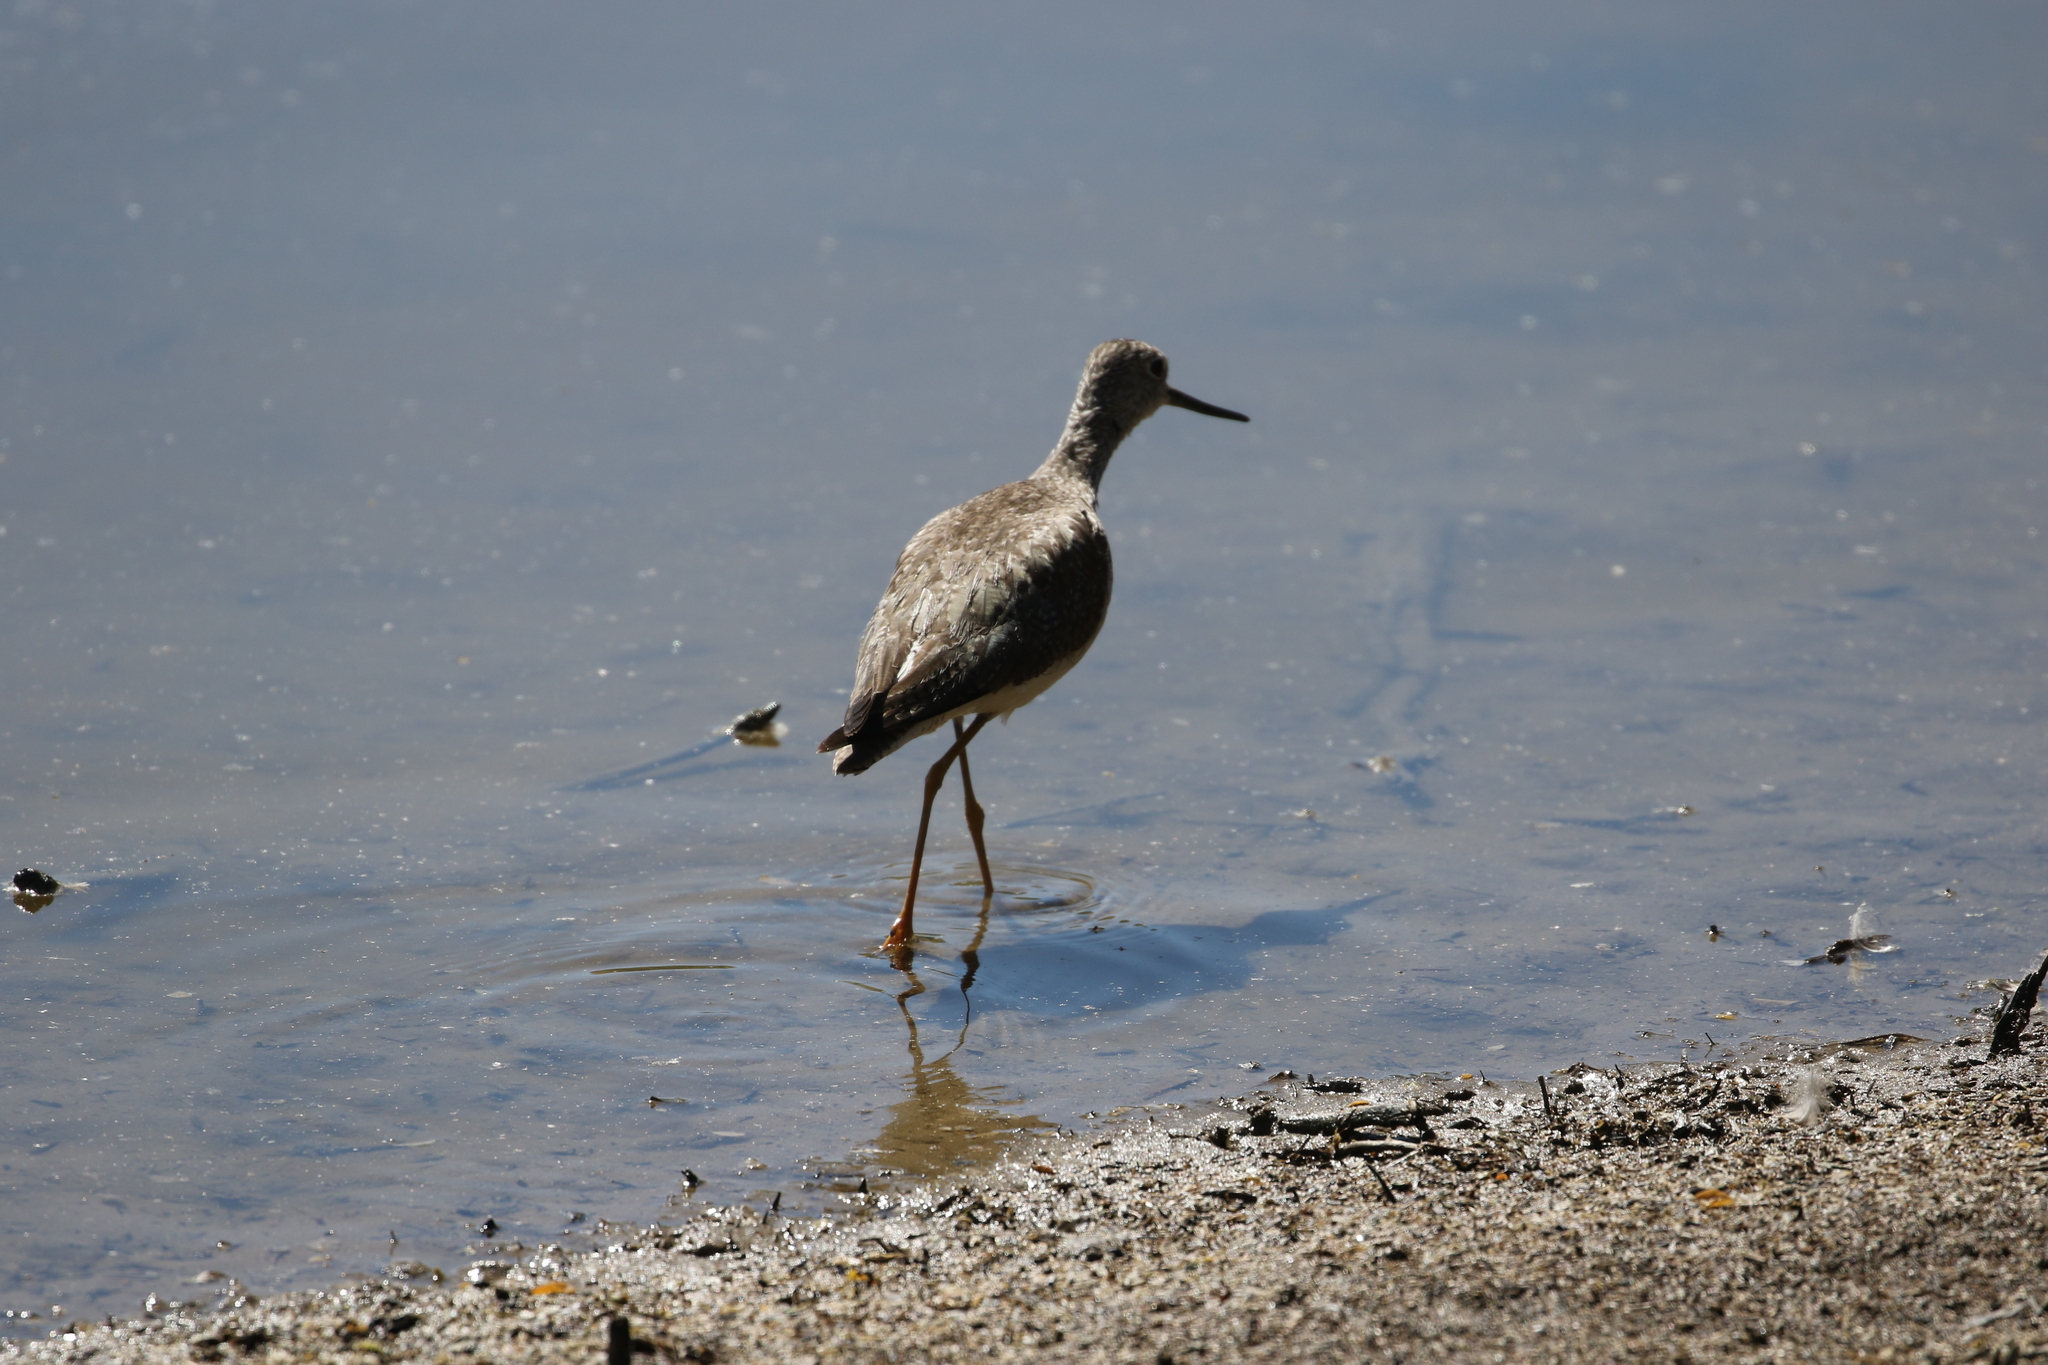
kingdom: Animalia
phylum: Chordata
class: Aves
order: Charadriiformes
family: Scolopacidae
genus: Tringa
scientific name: Tringa melanoleuca
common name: Greater yellowlegs
